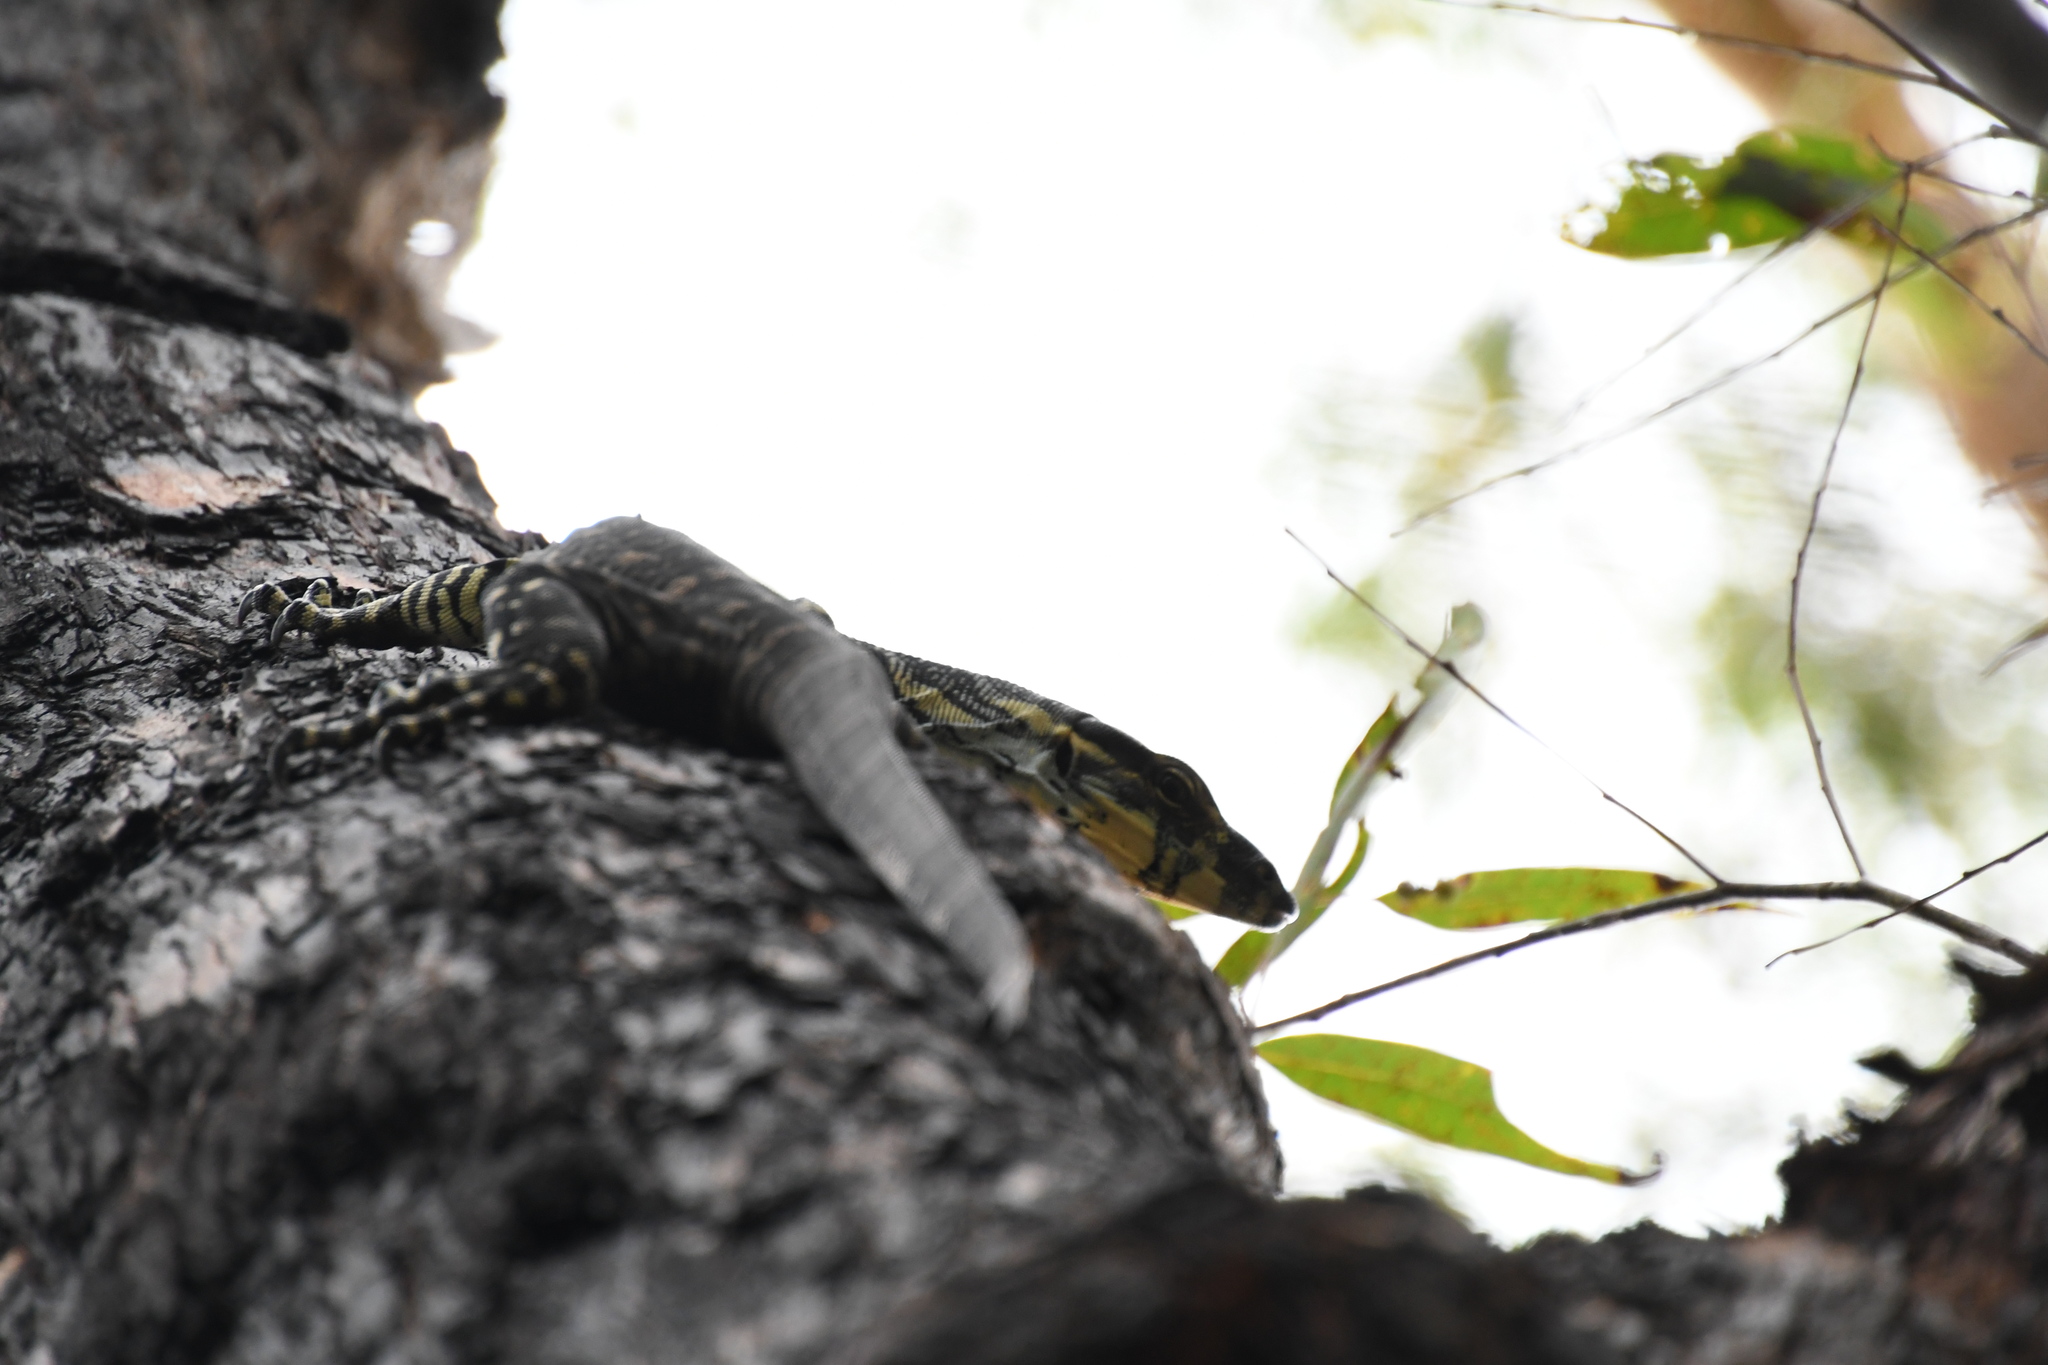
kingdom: Animalia
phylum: Chordata
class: Squamata
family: Varanidae
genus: Varanus
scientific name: Varanus varius
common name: Lace monitor
